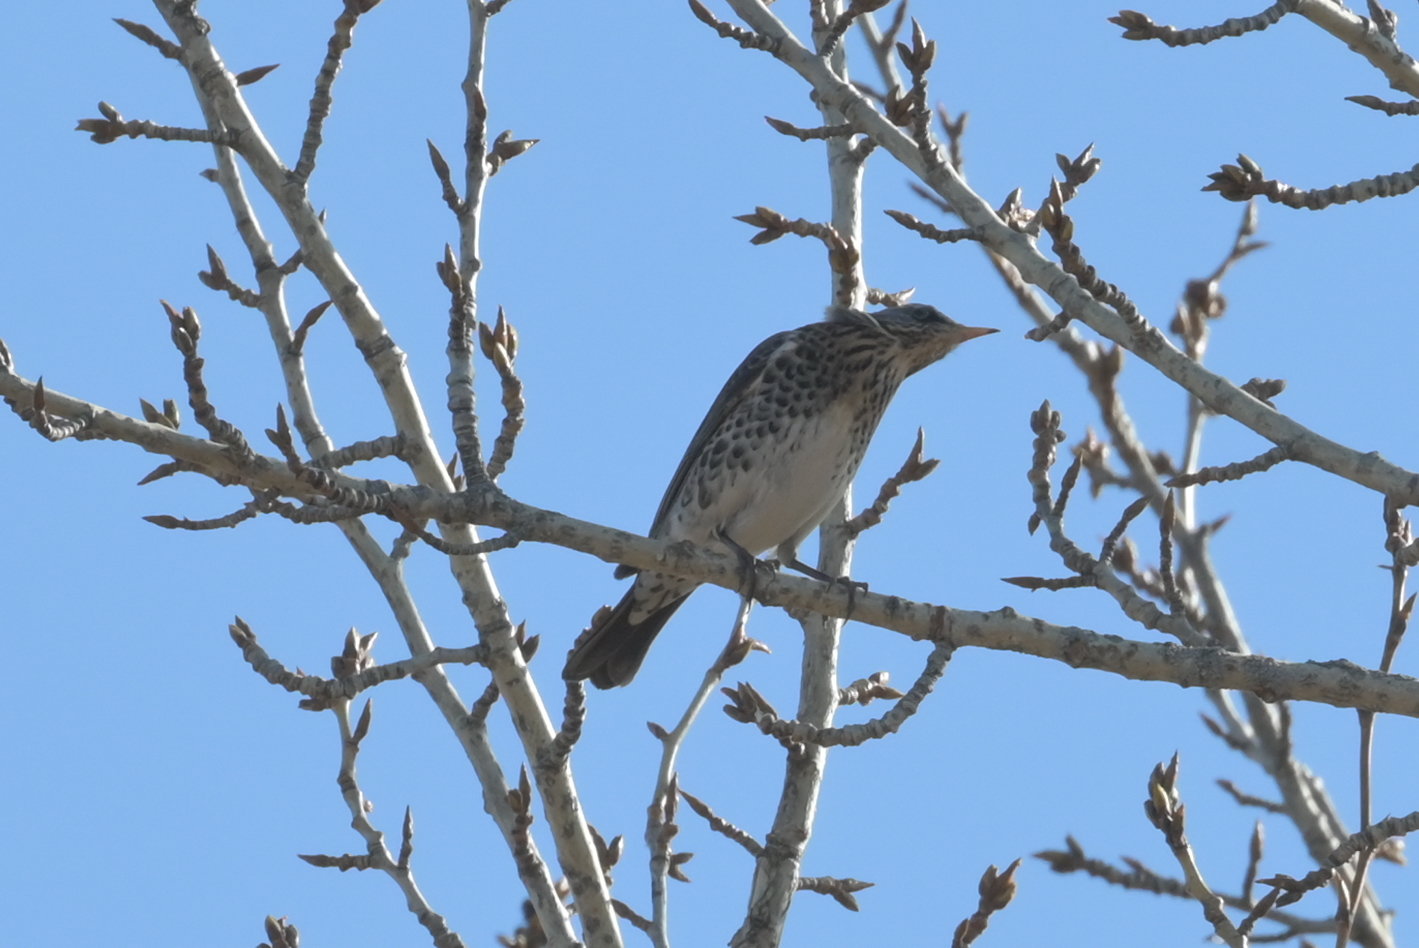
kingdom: Animalia
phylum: Chordata
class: Aves
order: Passeriformes
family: Turdidae
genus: Turdus
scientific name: Turdus pilaris
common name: Fieldfare
